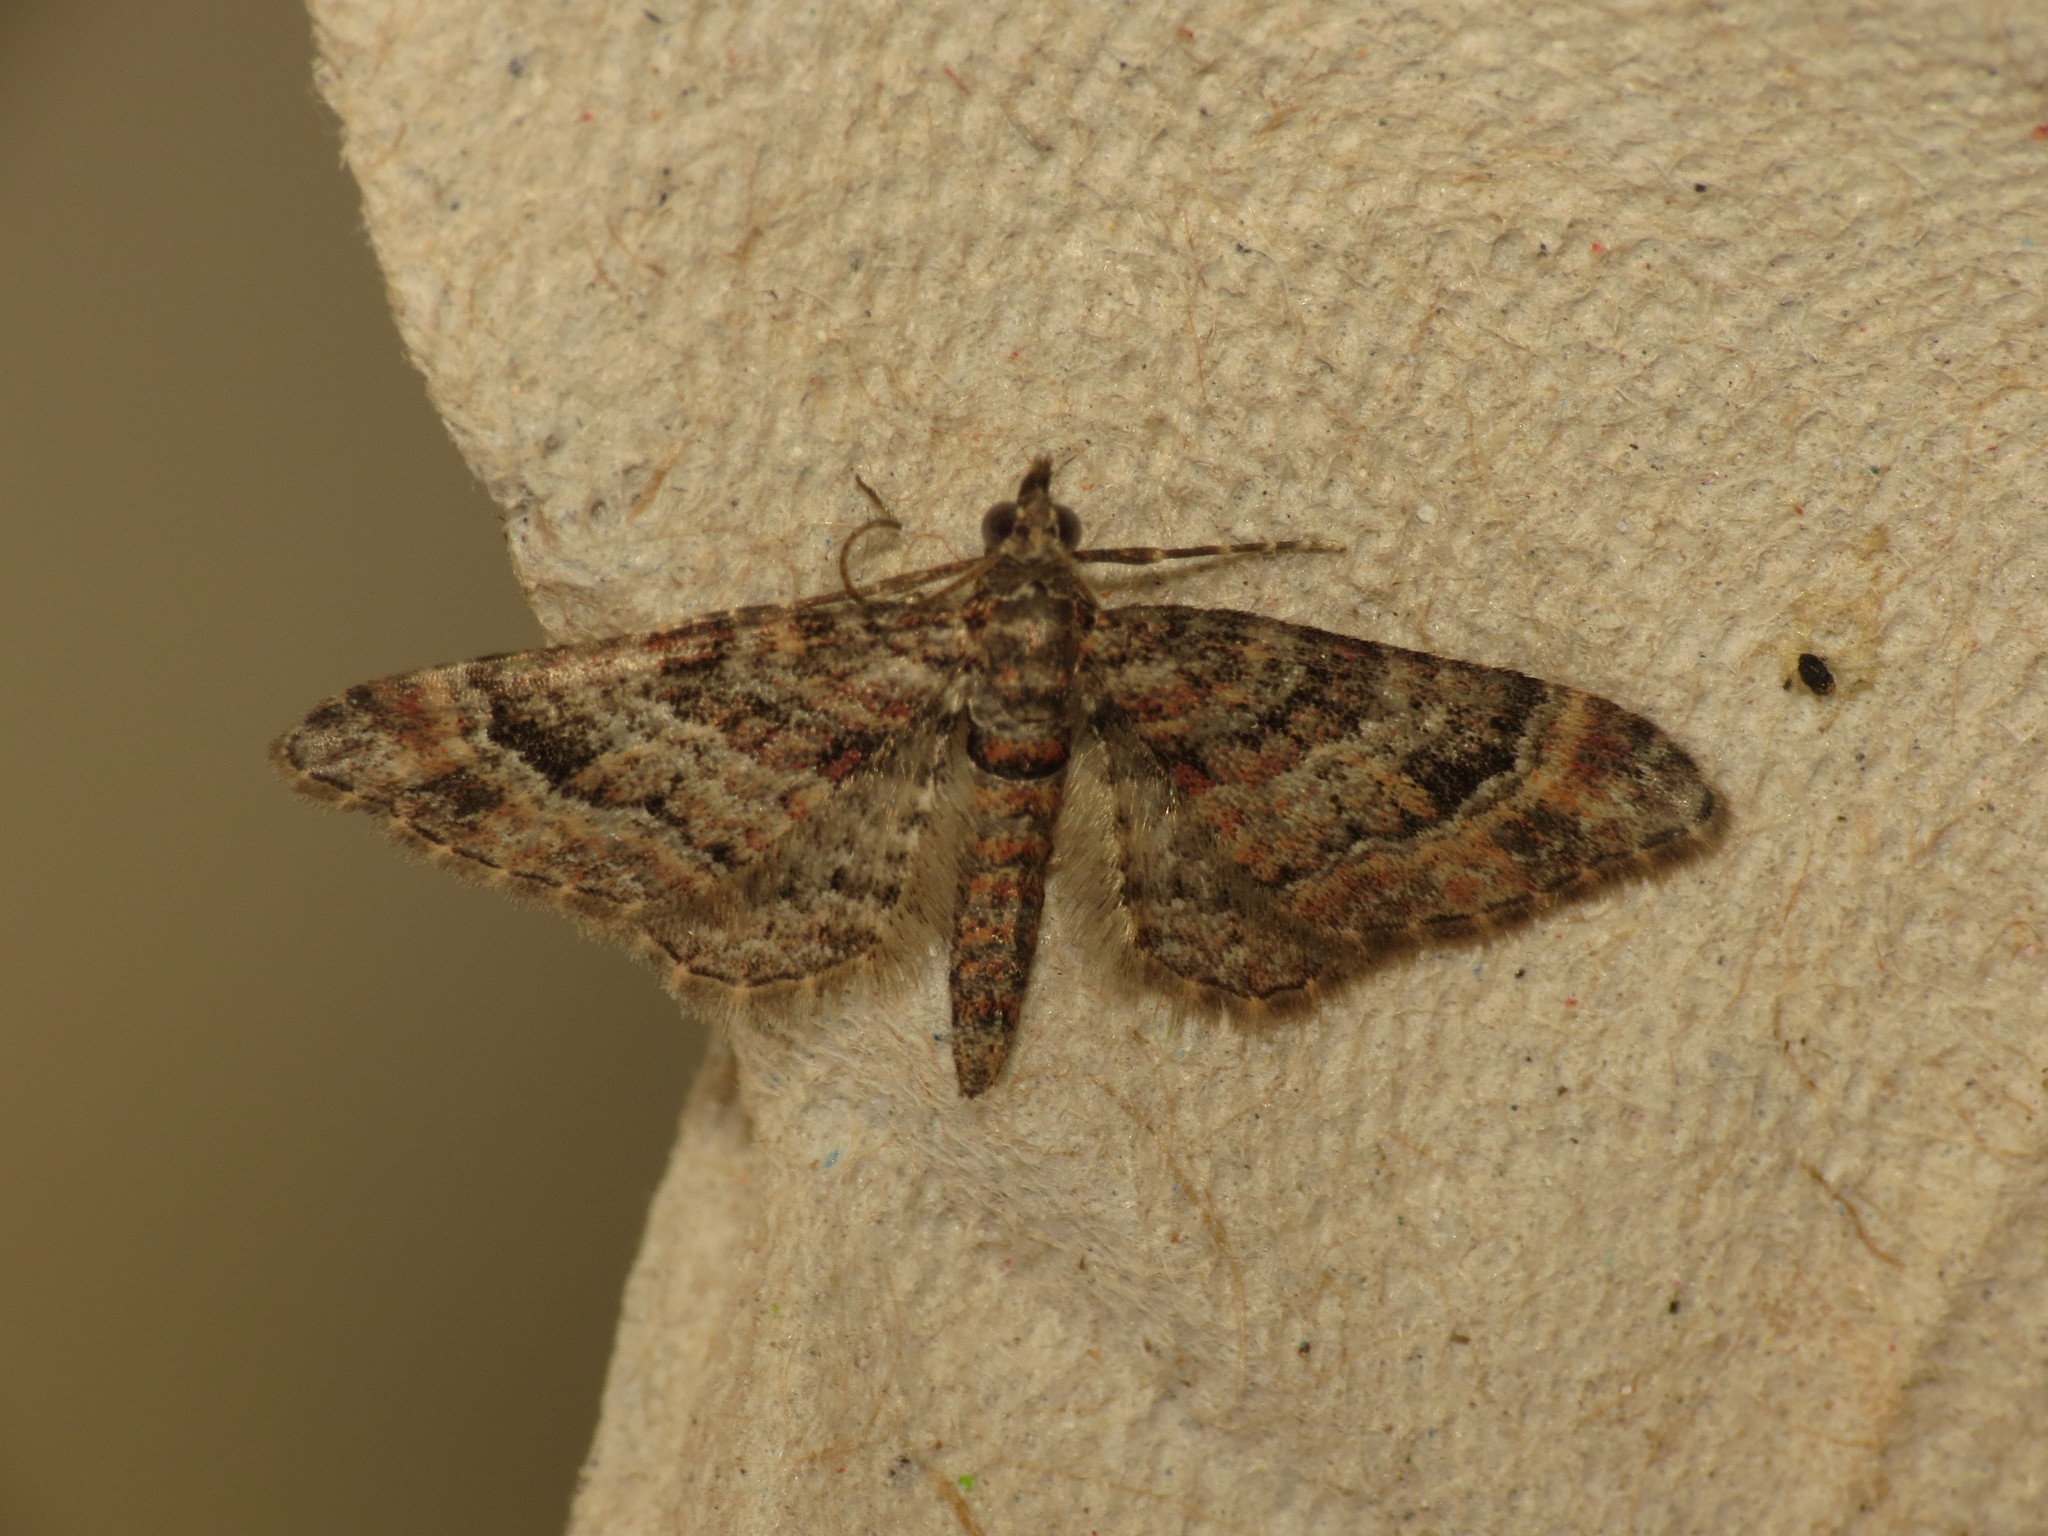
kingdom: Animalia
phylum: Arthropoda
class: Insecta
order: Lepidoptera
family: Geometridae
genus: Gymnoscelis
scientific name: Gymnoscelis rufifasciata
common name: Double-striped pug
